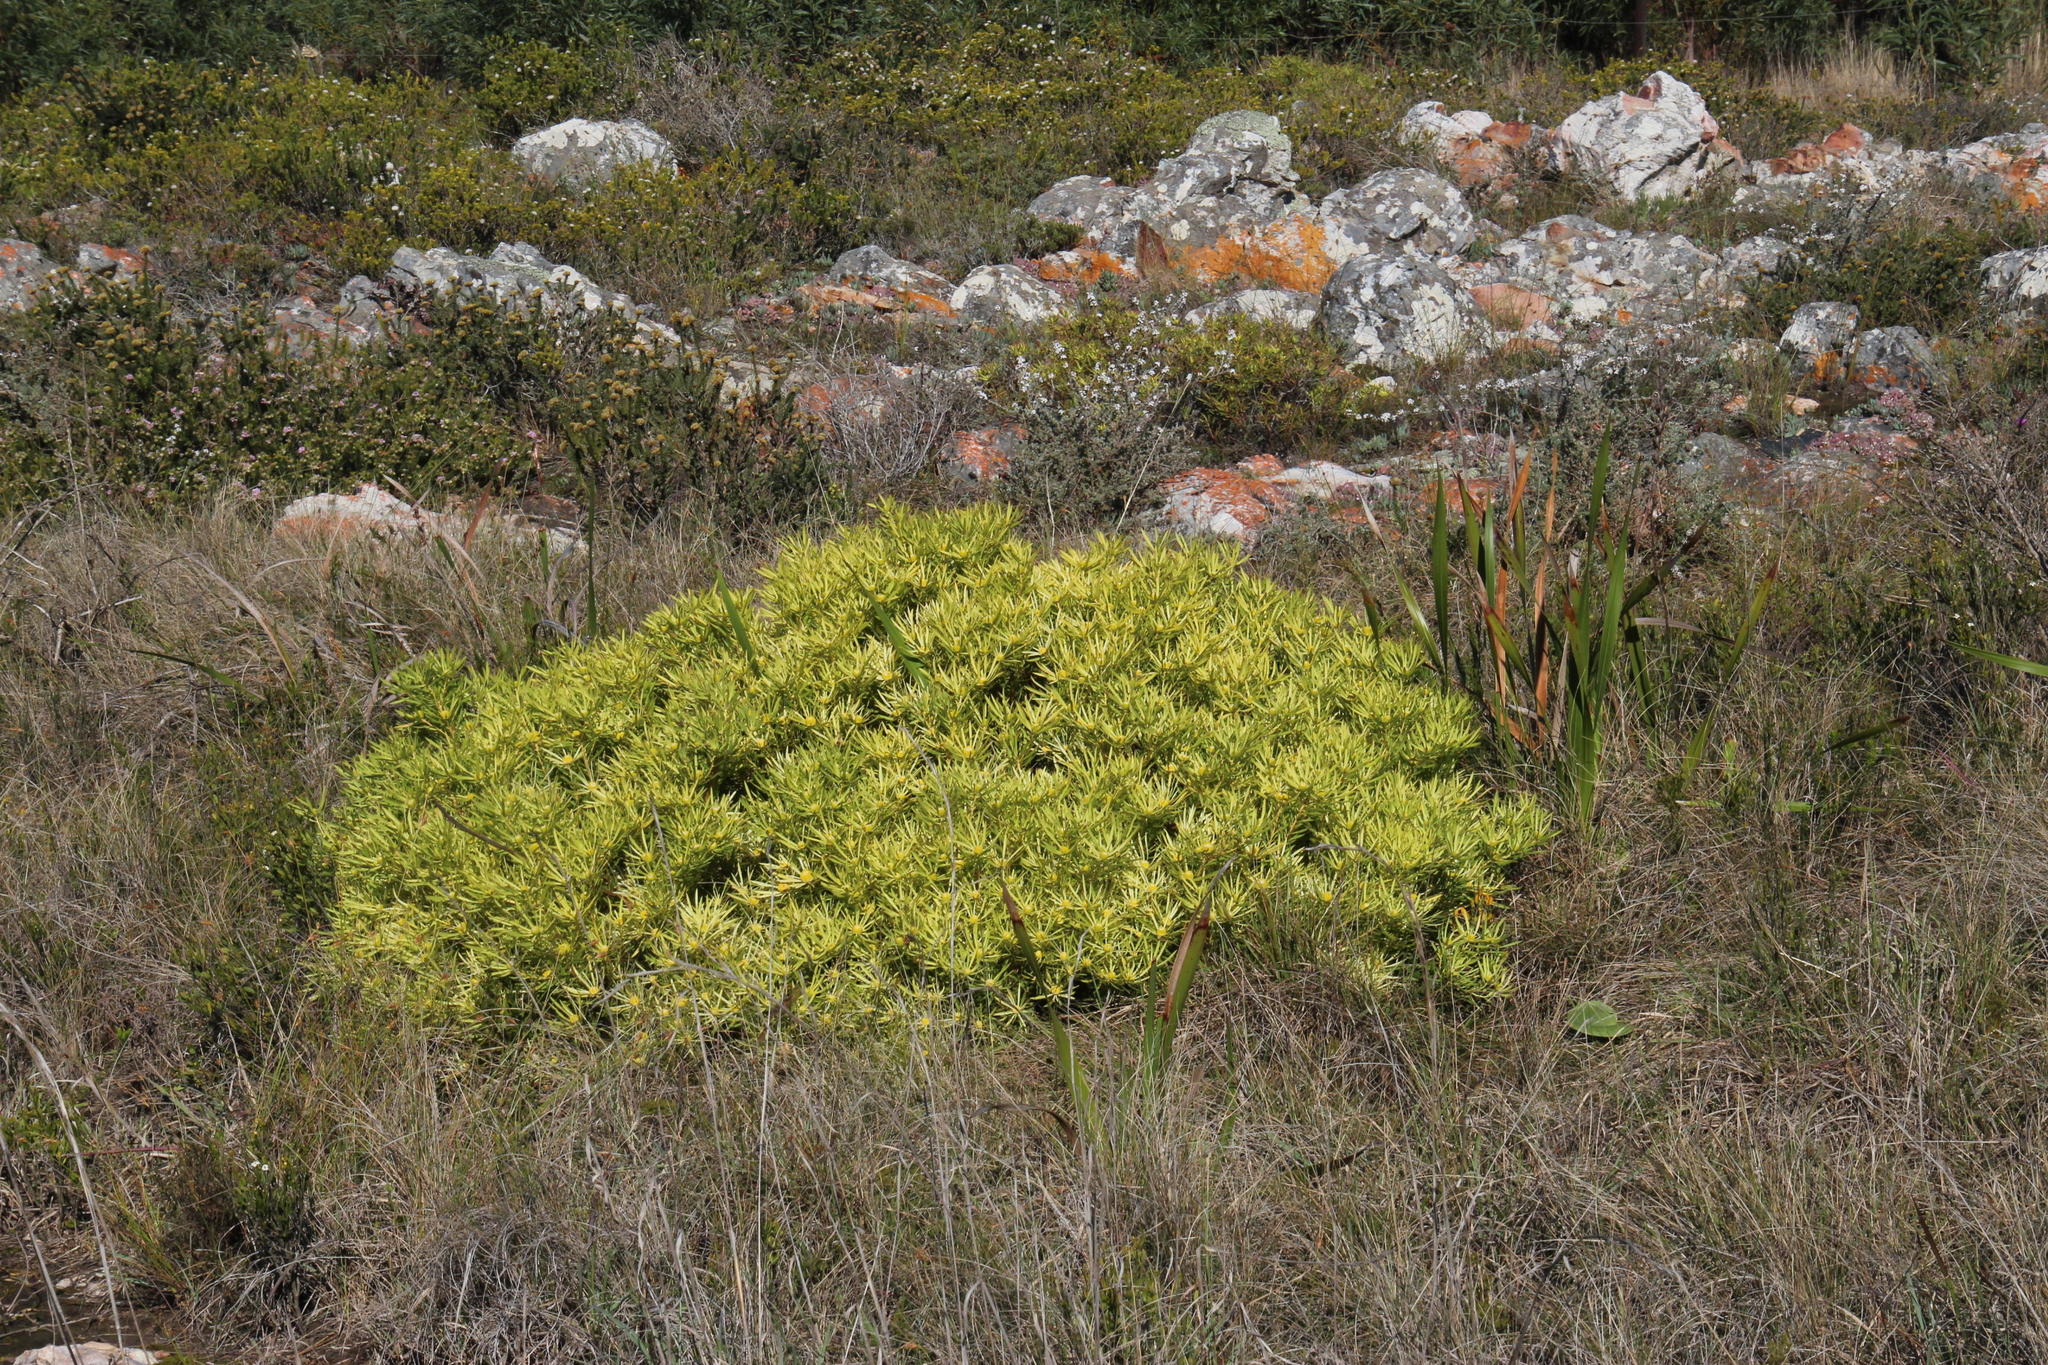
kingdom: Plantae
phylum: Tracheophyta
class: Magnoliopsida
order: Proteales
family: Proteaceae
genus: Leucadendron
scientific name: Leucadendron salignum
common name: Common sunshine conebush
